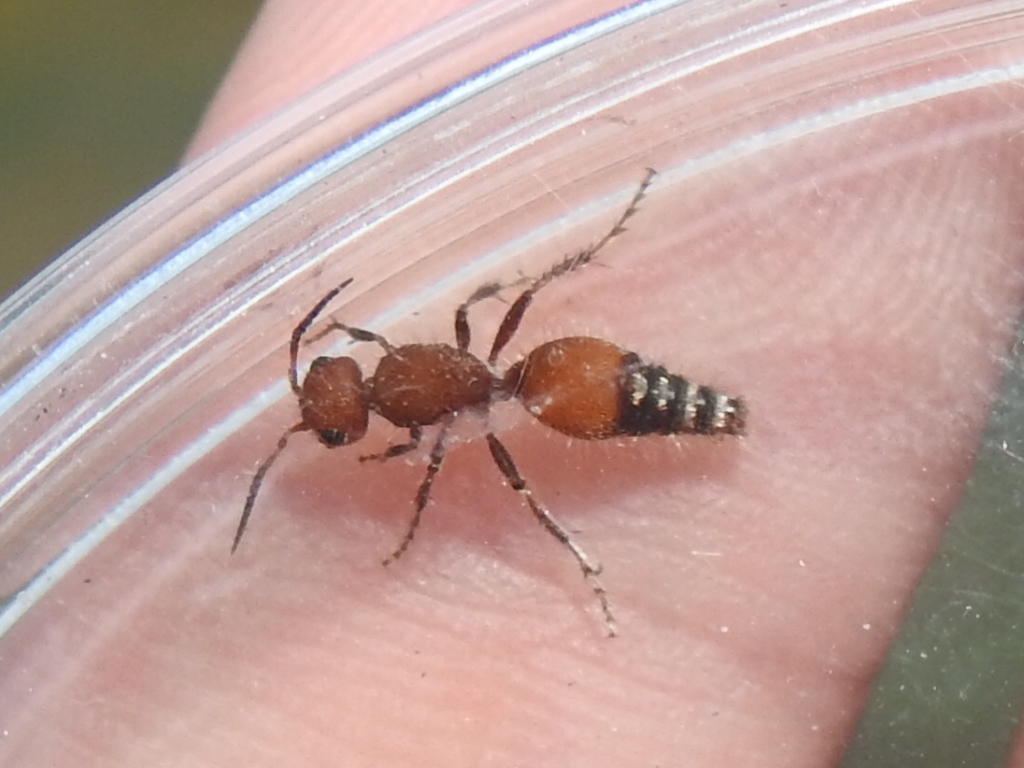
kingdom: Animalia
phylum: Arthropoda
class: Insecta
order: Hymenoptera
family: Mutillidae
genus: Dasymutilla
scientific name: Dasymutilla
